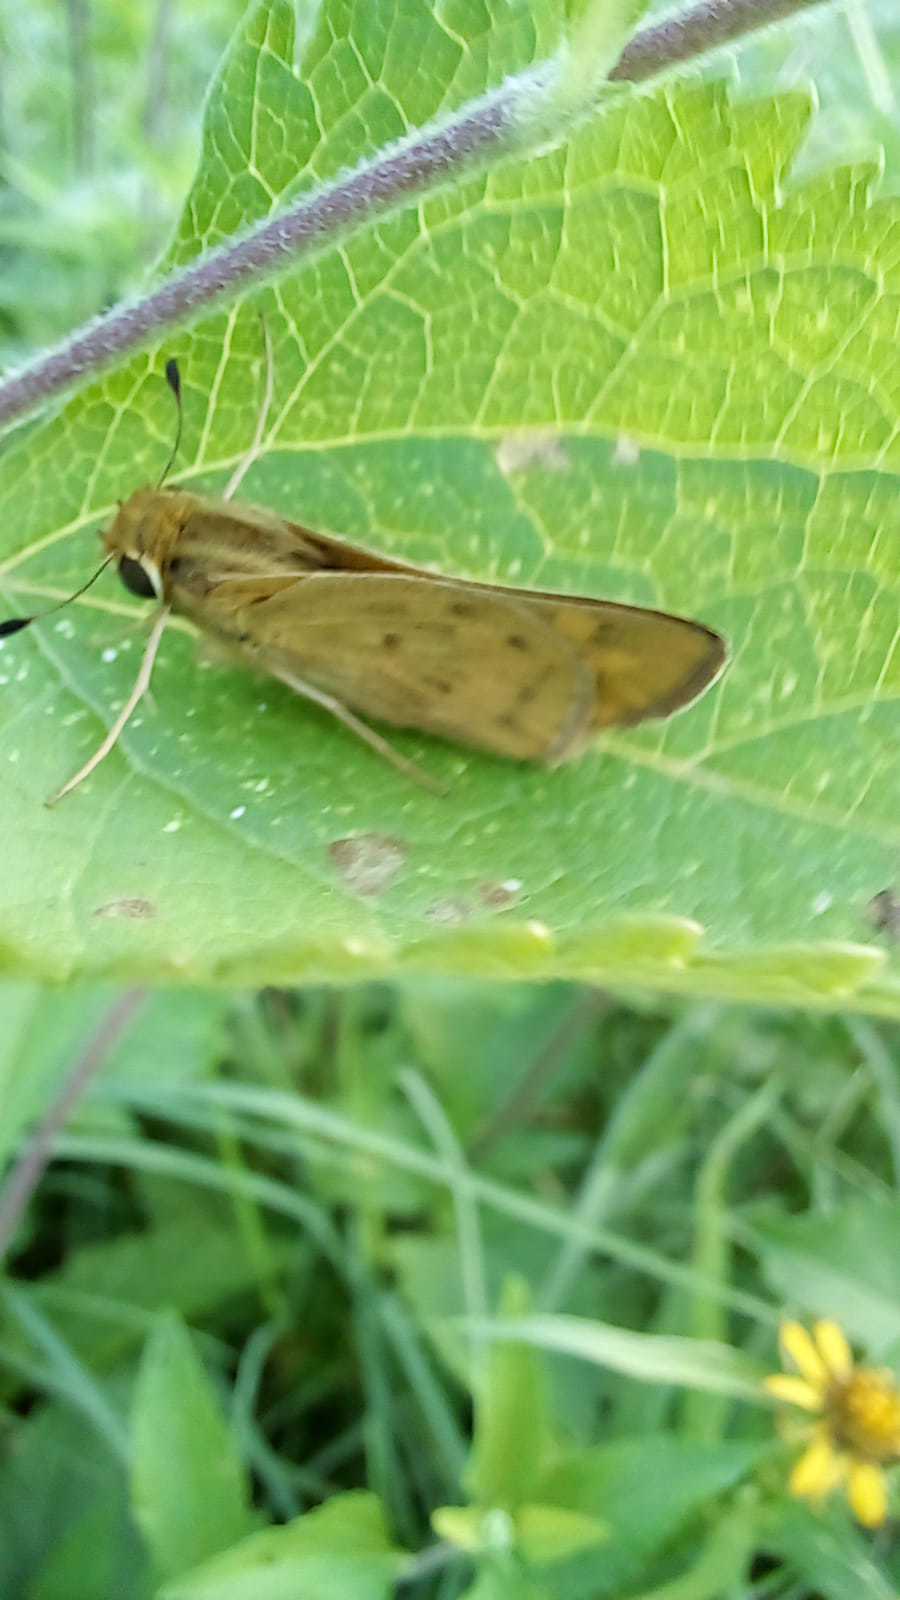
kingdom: Animalia
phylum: Arthropoda
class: Insecta
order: Lepidoptera
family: Hesperiidae
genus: Hylephila
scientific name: Hylephila phyleus
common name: Fiery skipper
